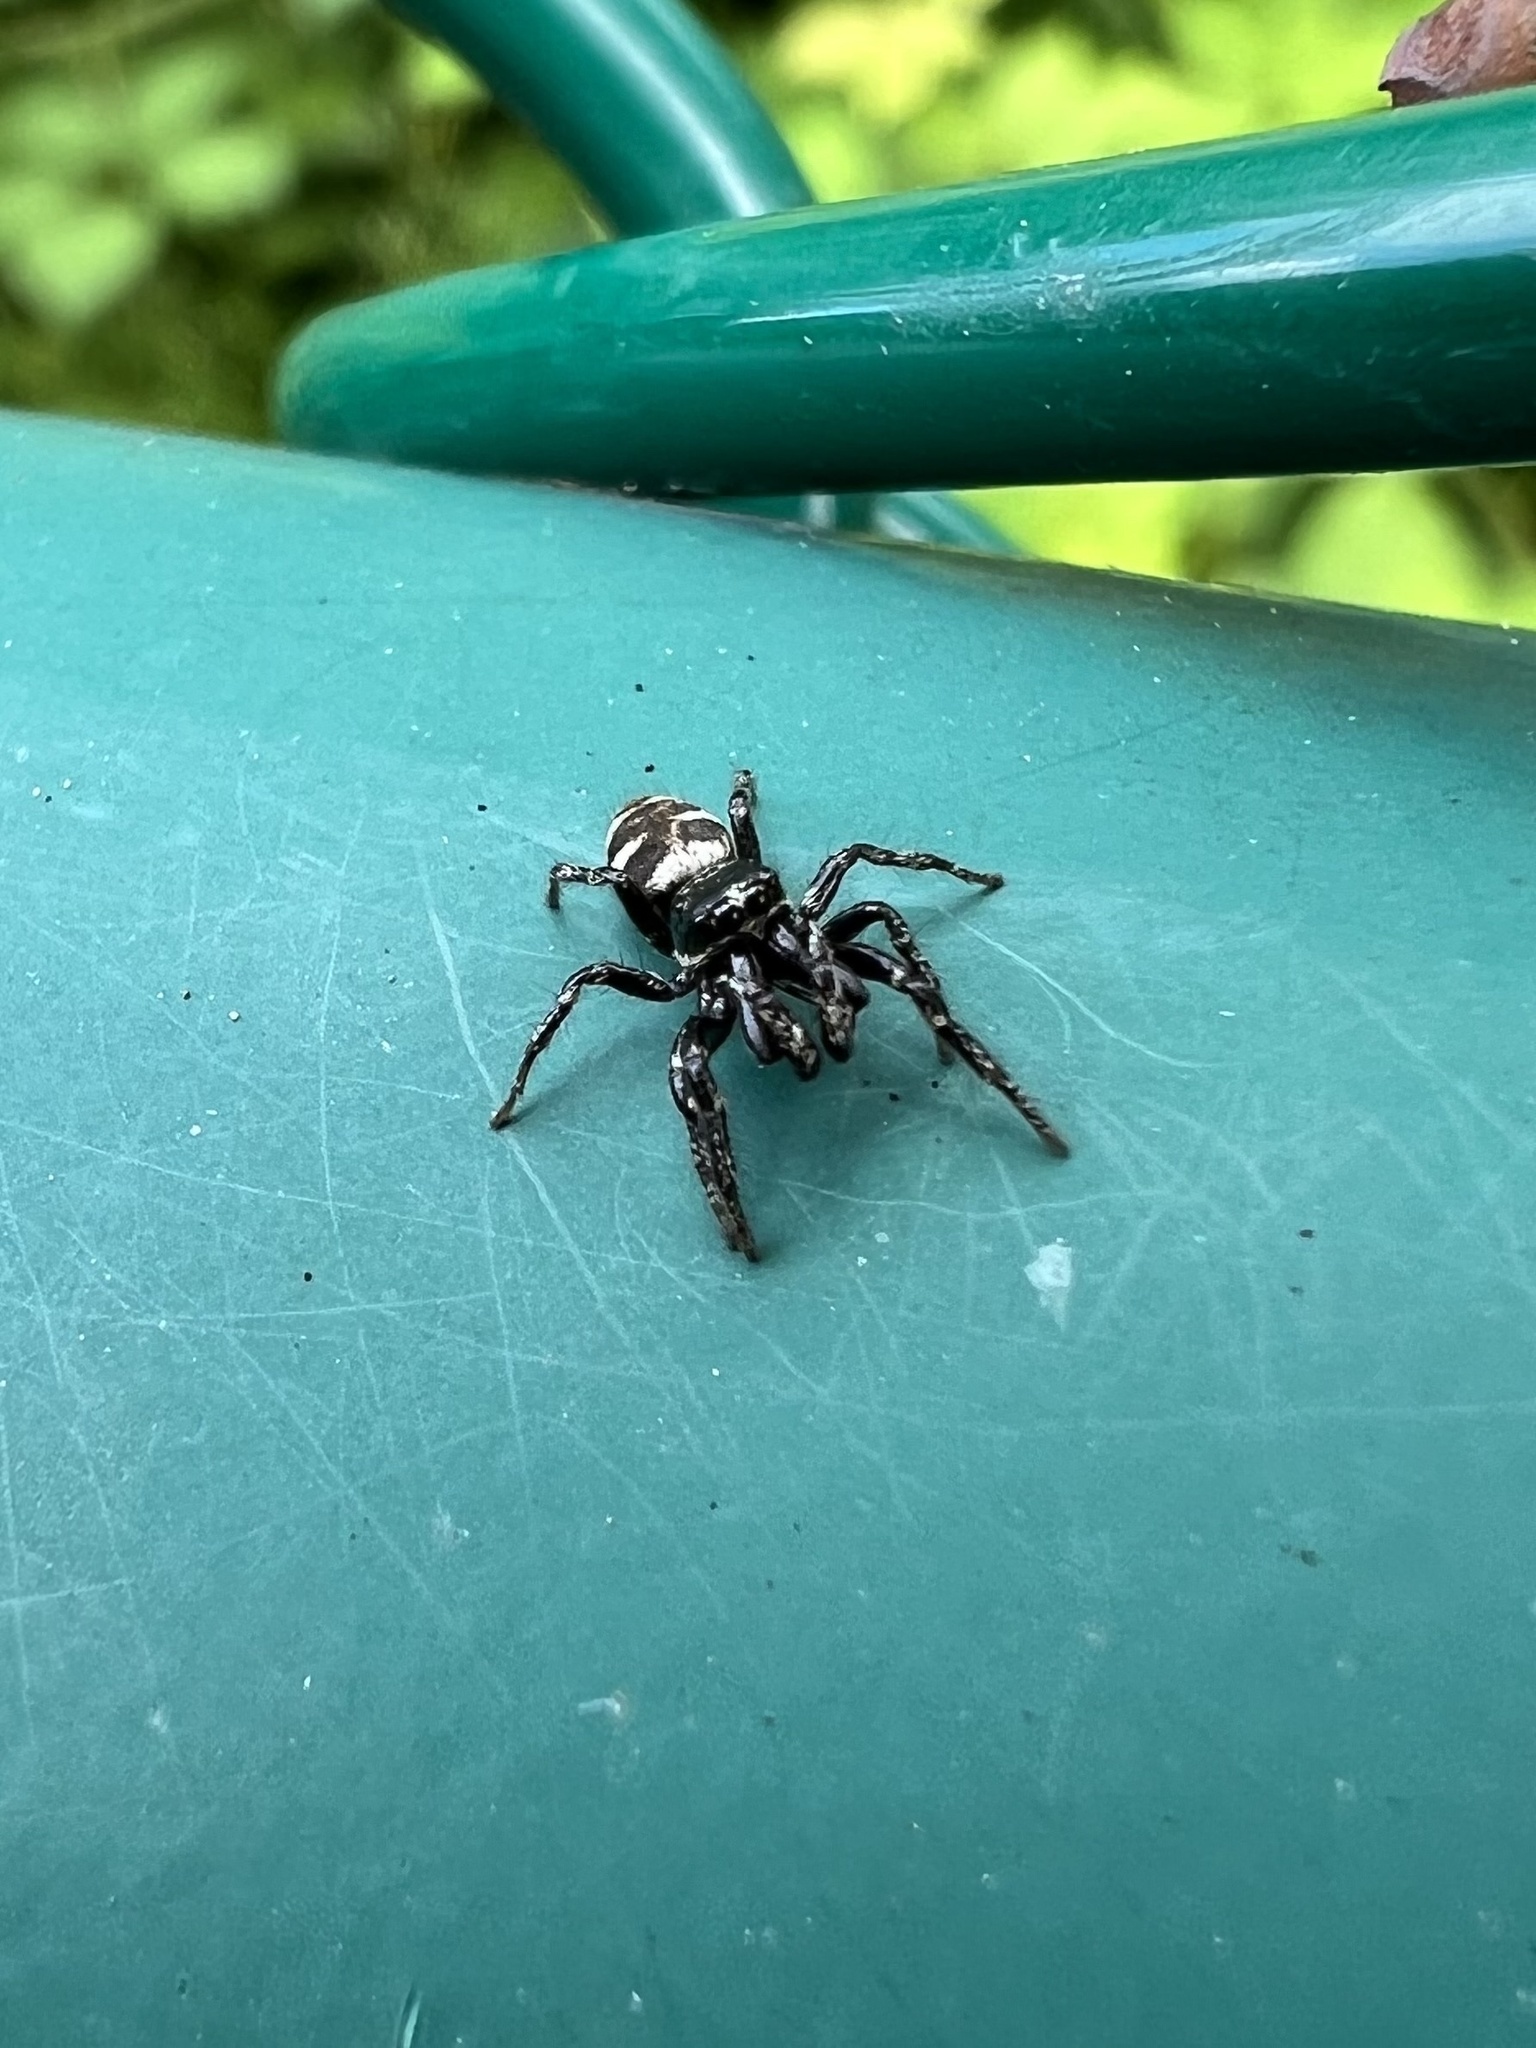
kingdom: Animalia
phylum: Arthropoda
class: Arachnida
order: Araneae
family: Salticidae
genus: Salticus
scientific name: Salticus scenicus
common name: Zebra jumper
